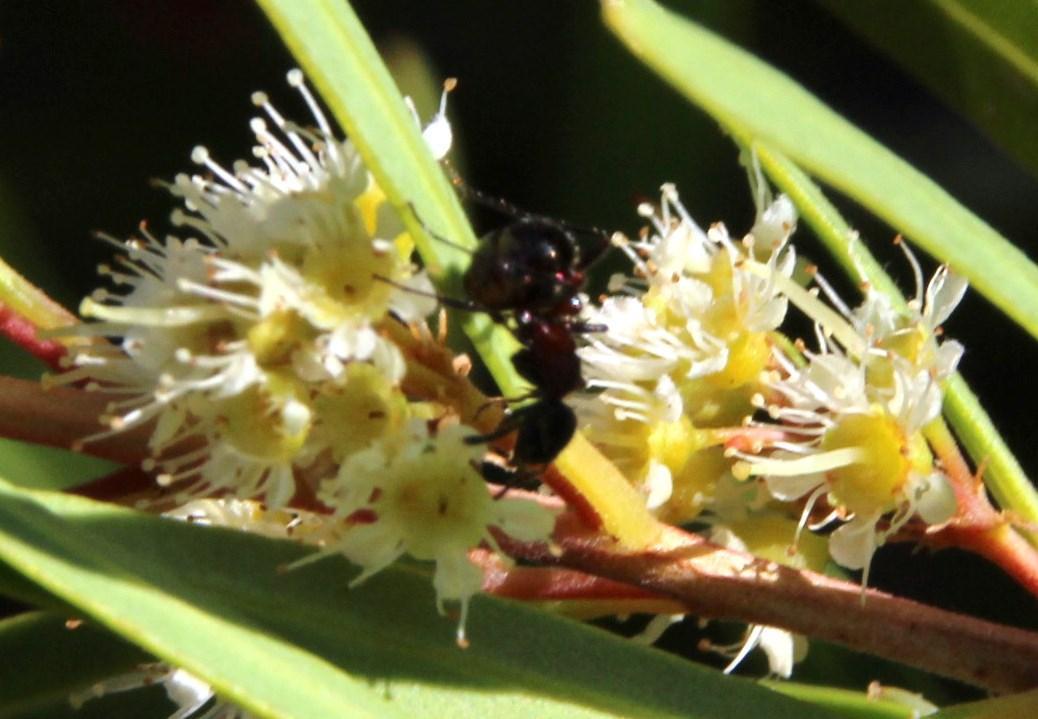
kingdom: Animalia
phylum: Arthropoda
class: Insecta
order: Hymenoptera
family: Formicidae
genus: Myrmicaria
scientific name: Myrmicaria nigra
